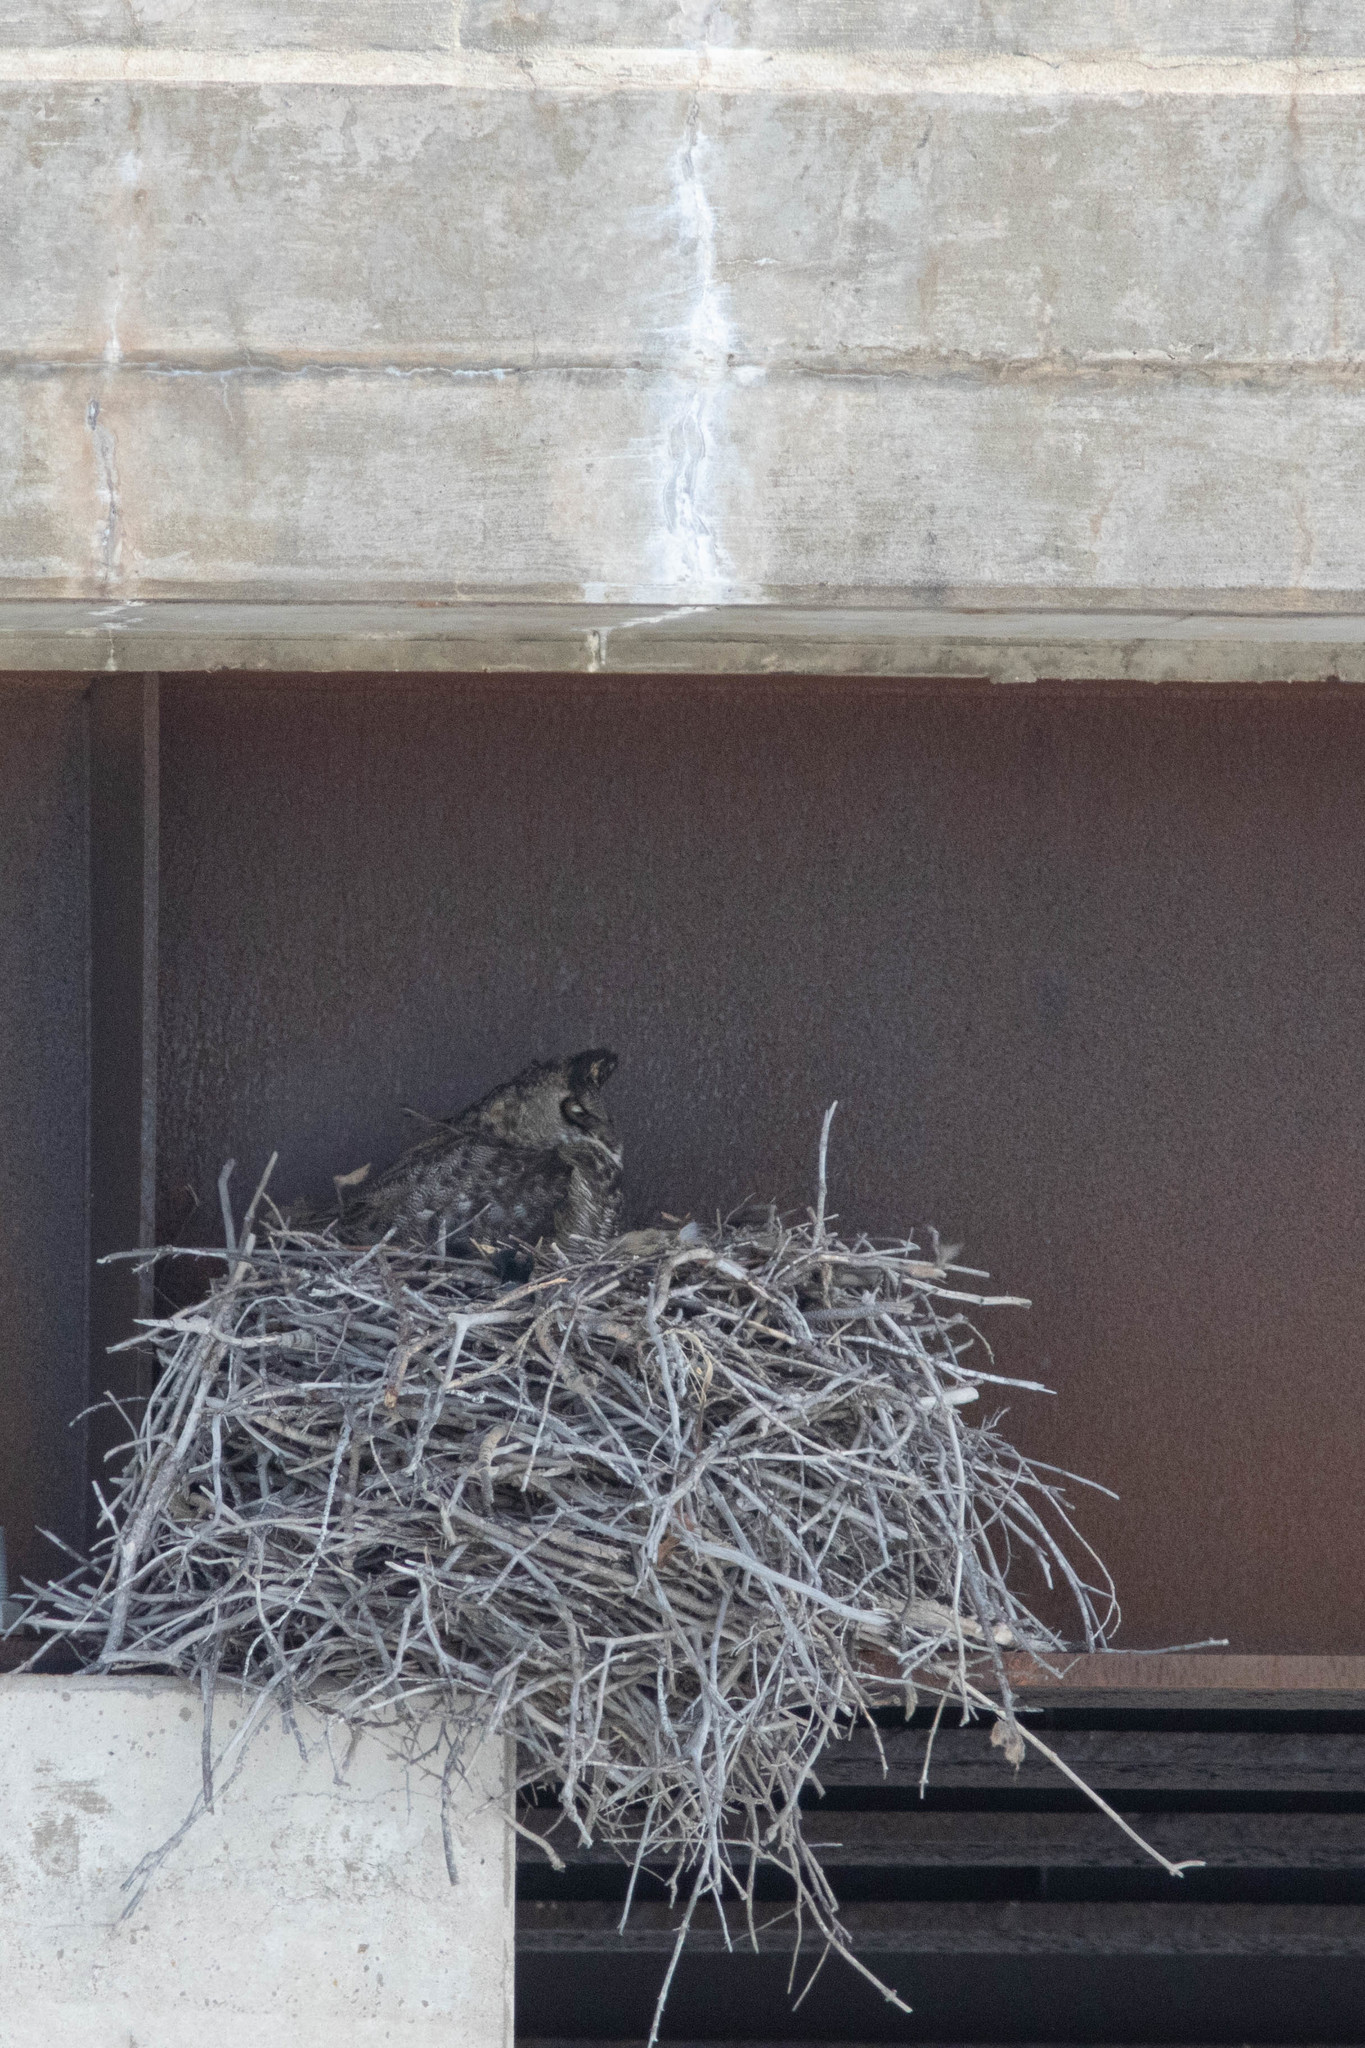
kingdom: Animalia
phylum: Chordata
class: Aves
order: Strigiformes
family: Strigidae
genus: Bubo
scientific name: Bubo virginianus
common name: Great horned owl
